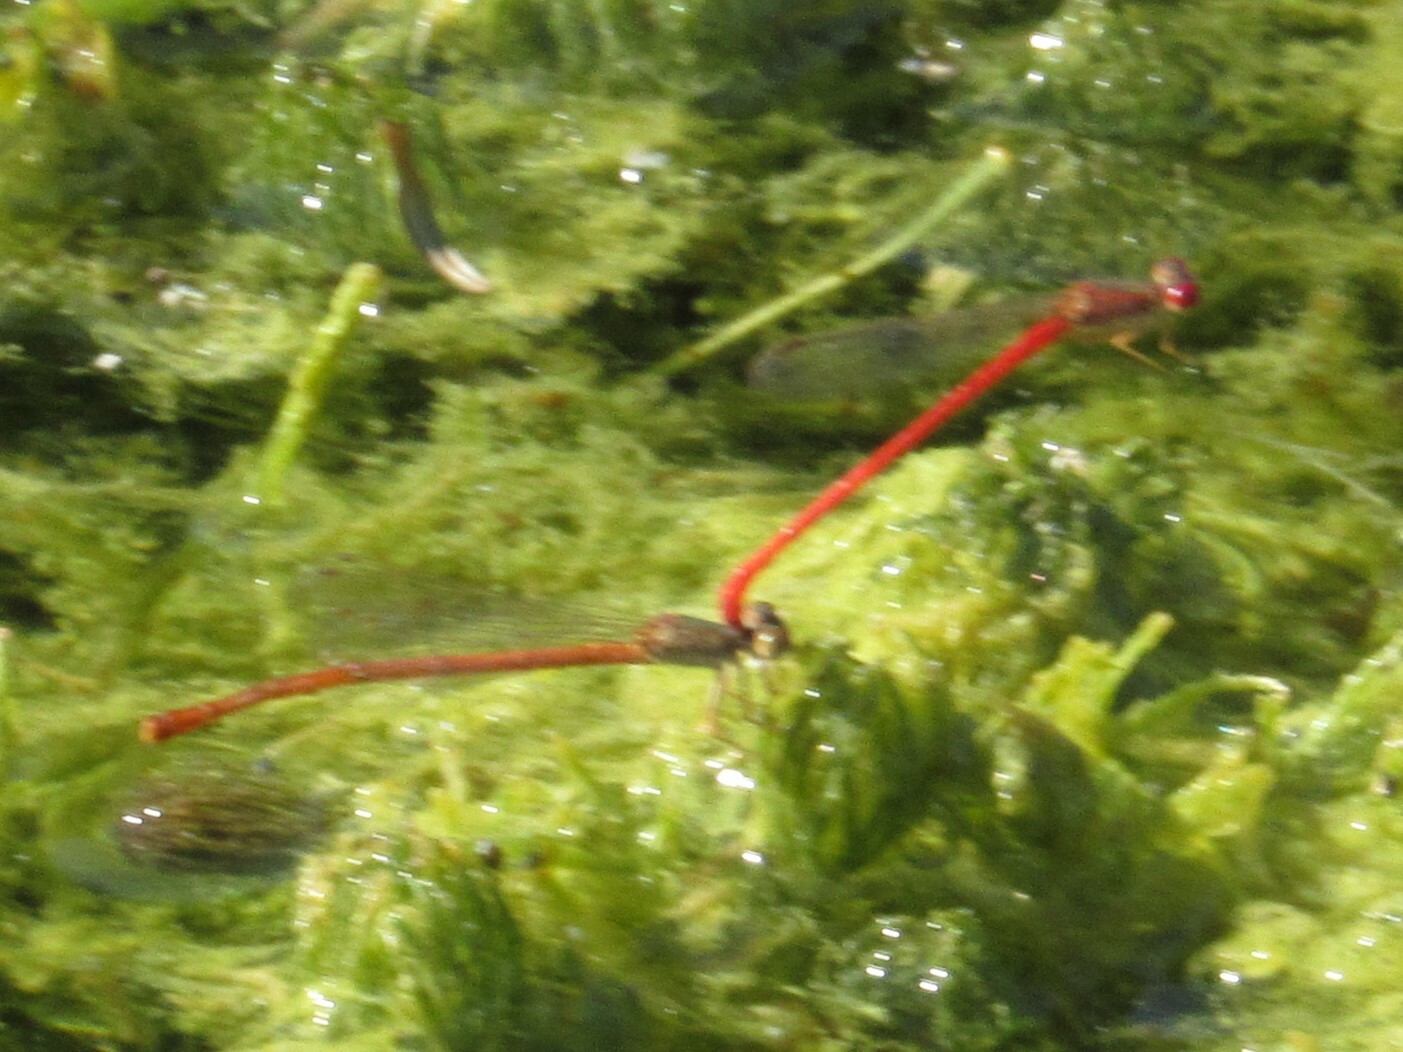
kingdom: Animalia
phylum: Arthropoda
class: Insecta
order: Odonata
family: Coenagrionidae
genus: Telebasis
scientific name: Telebasis salva
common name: Desert firetail
